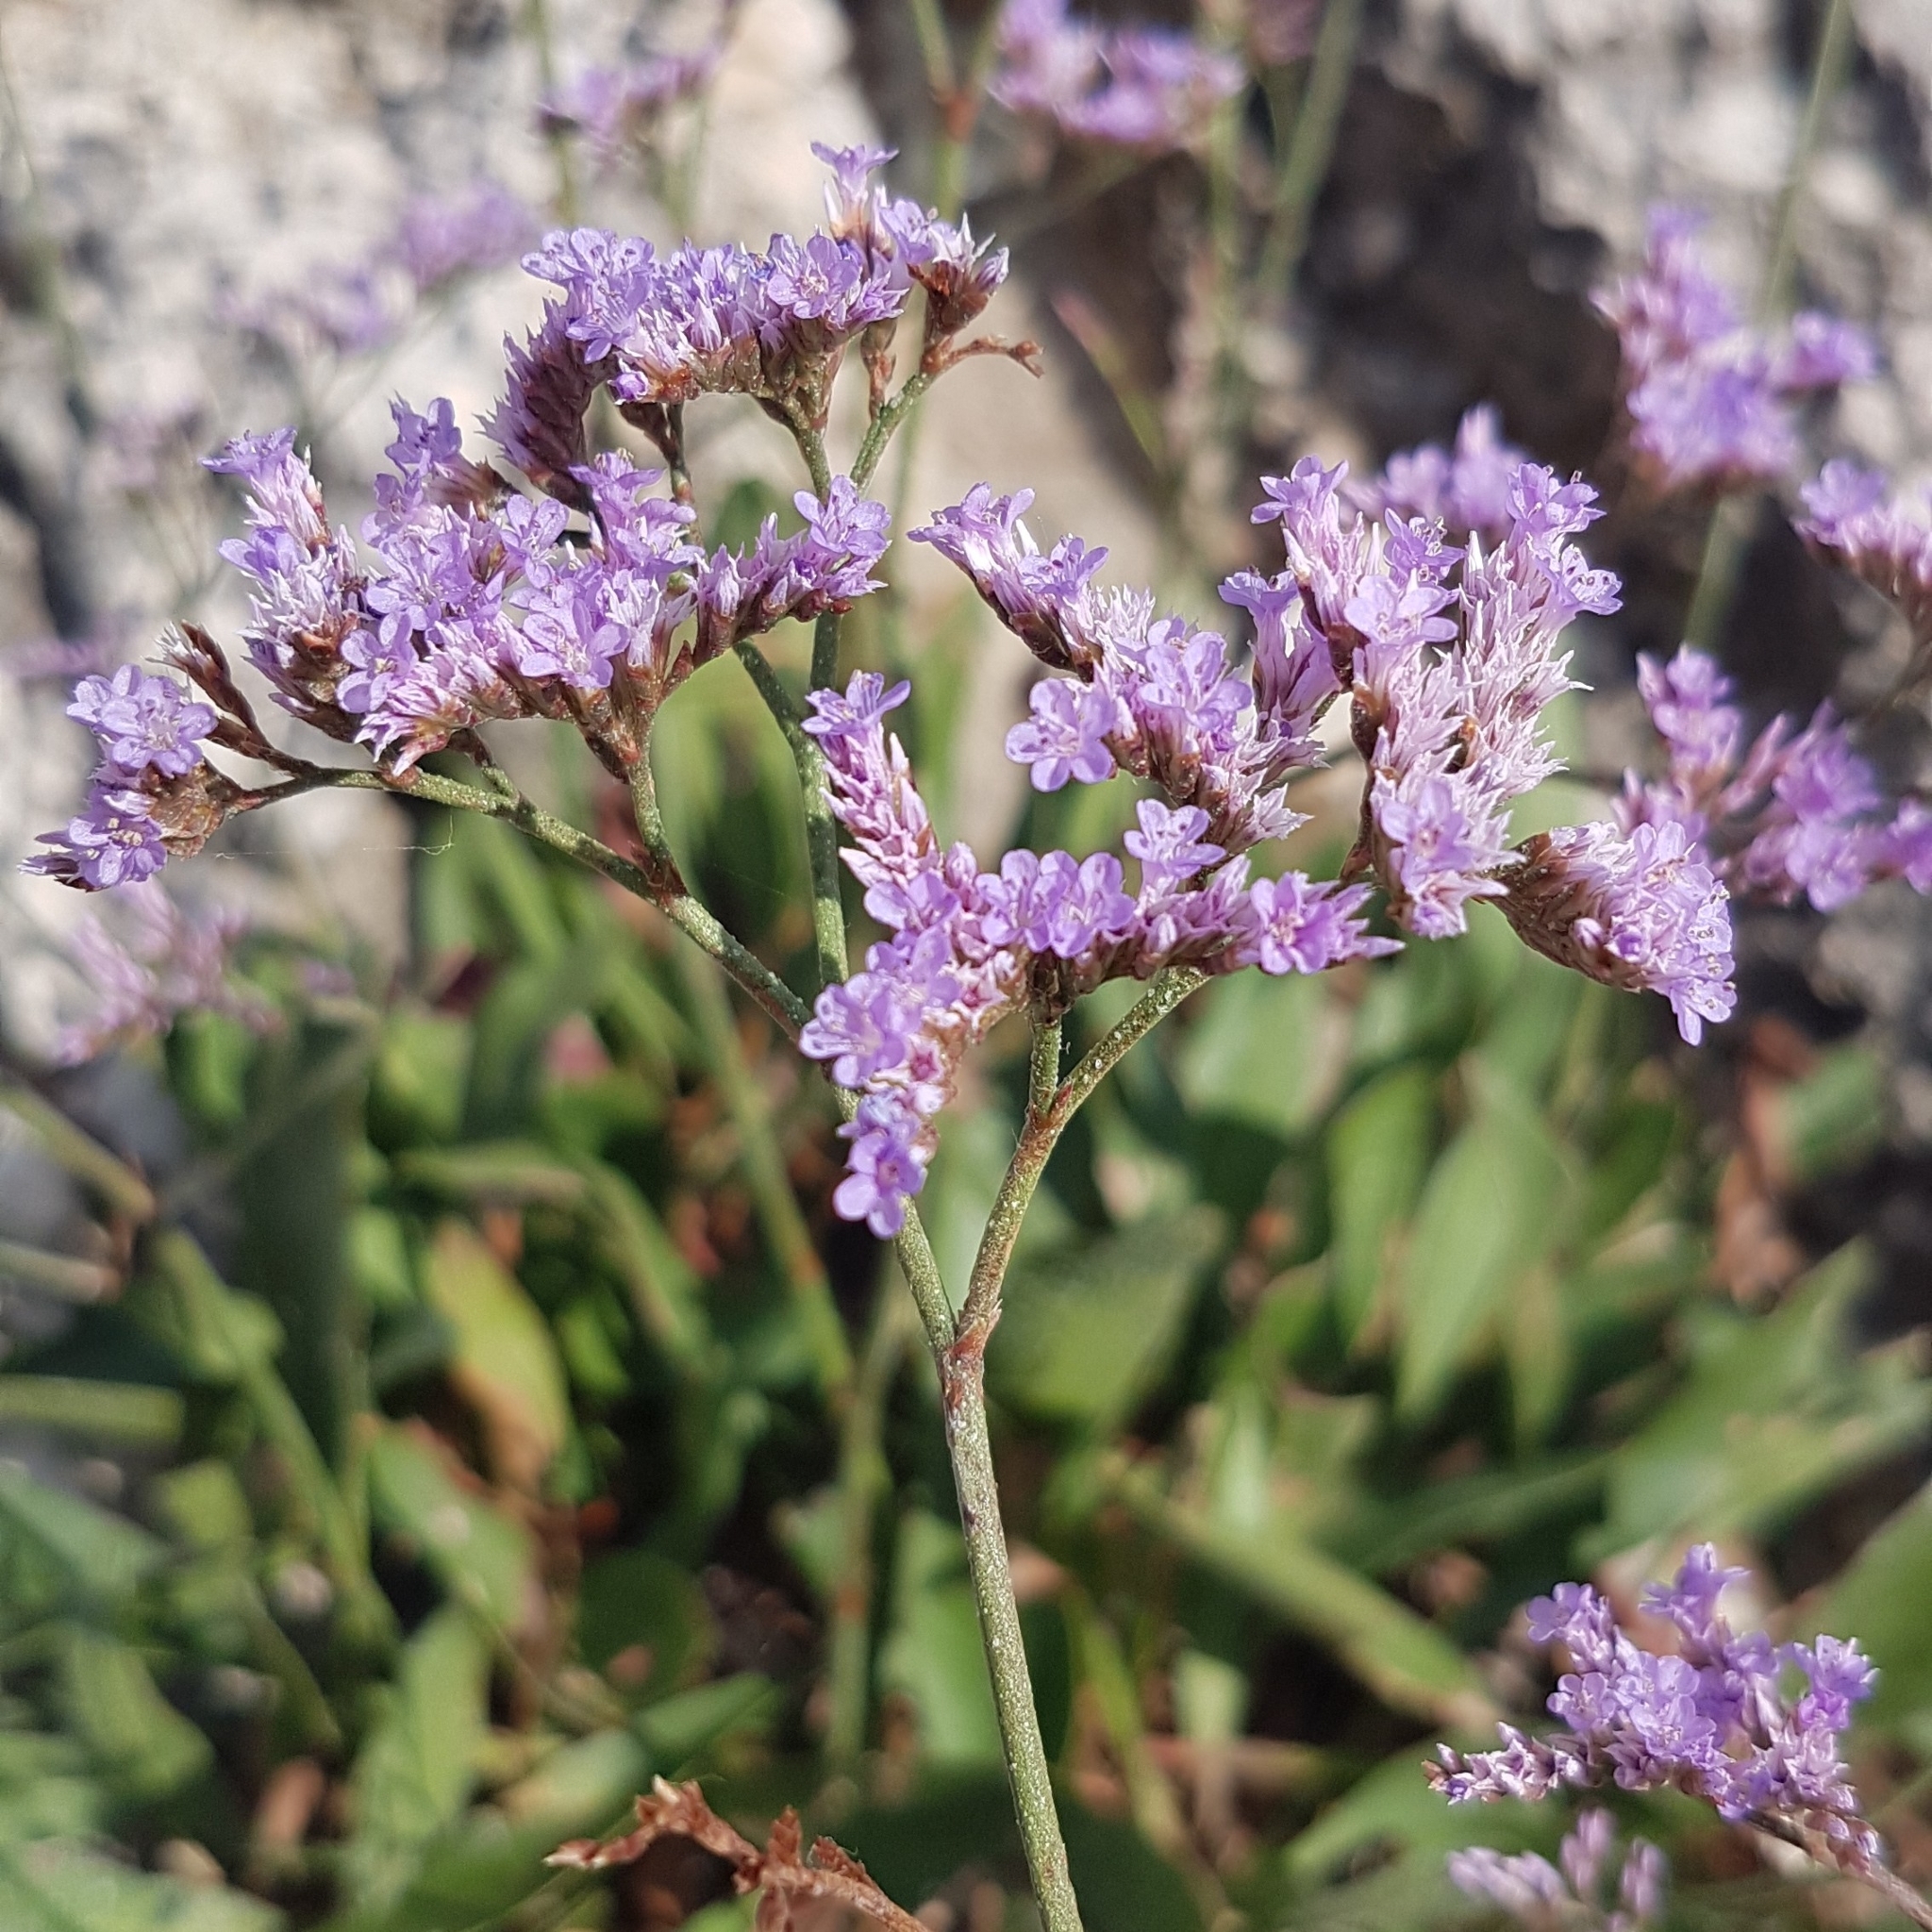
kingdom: Plantae
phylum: Tracheophyta
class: Magnoliopsida
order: Caryophyllales
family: Plumbaginaceae
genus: Limonium
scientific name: Limonium narbonense
